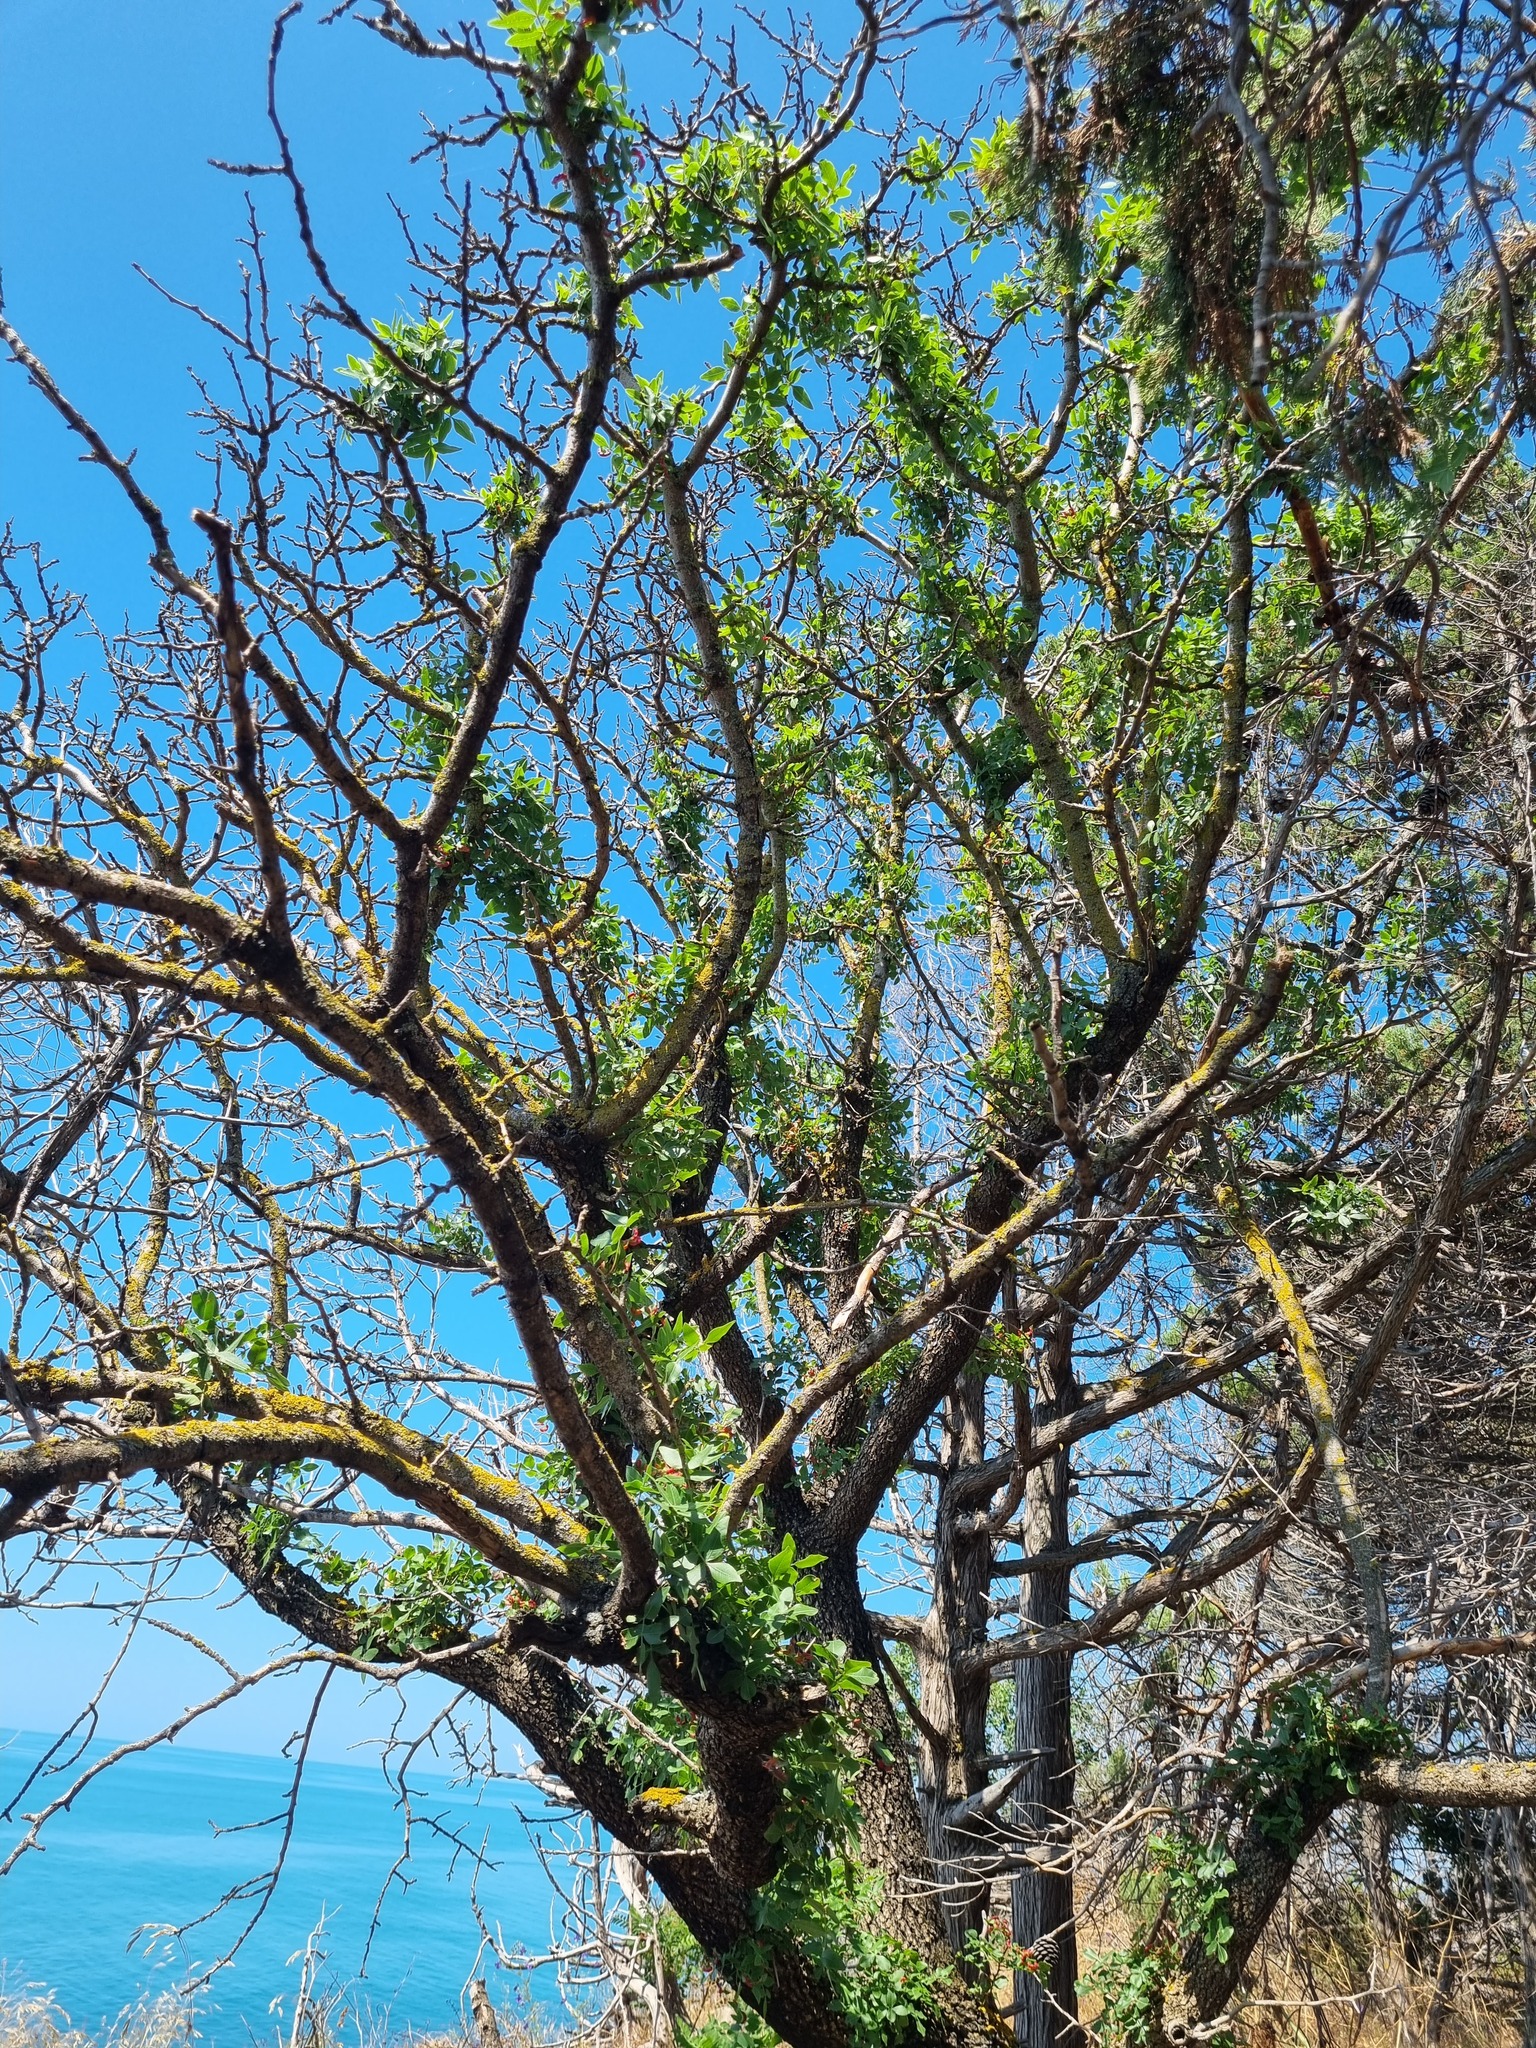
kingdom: Plantae
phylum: Tracheophyta
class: Magnoliopsida
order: Sapindales
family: Anacardiaceae
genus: Pistacia
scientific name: Pistacia atlantica
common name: Mt. atlas mastic tree
